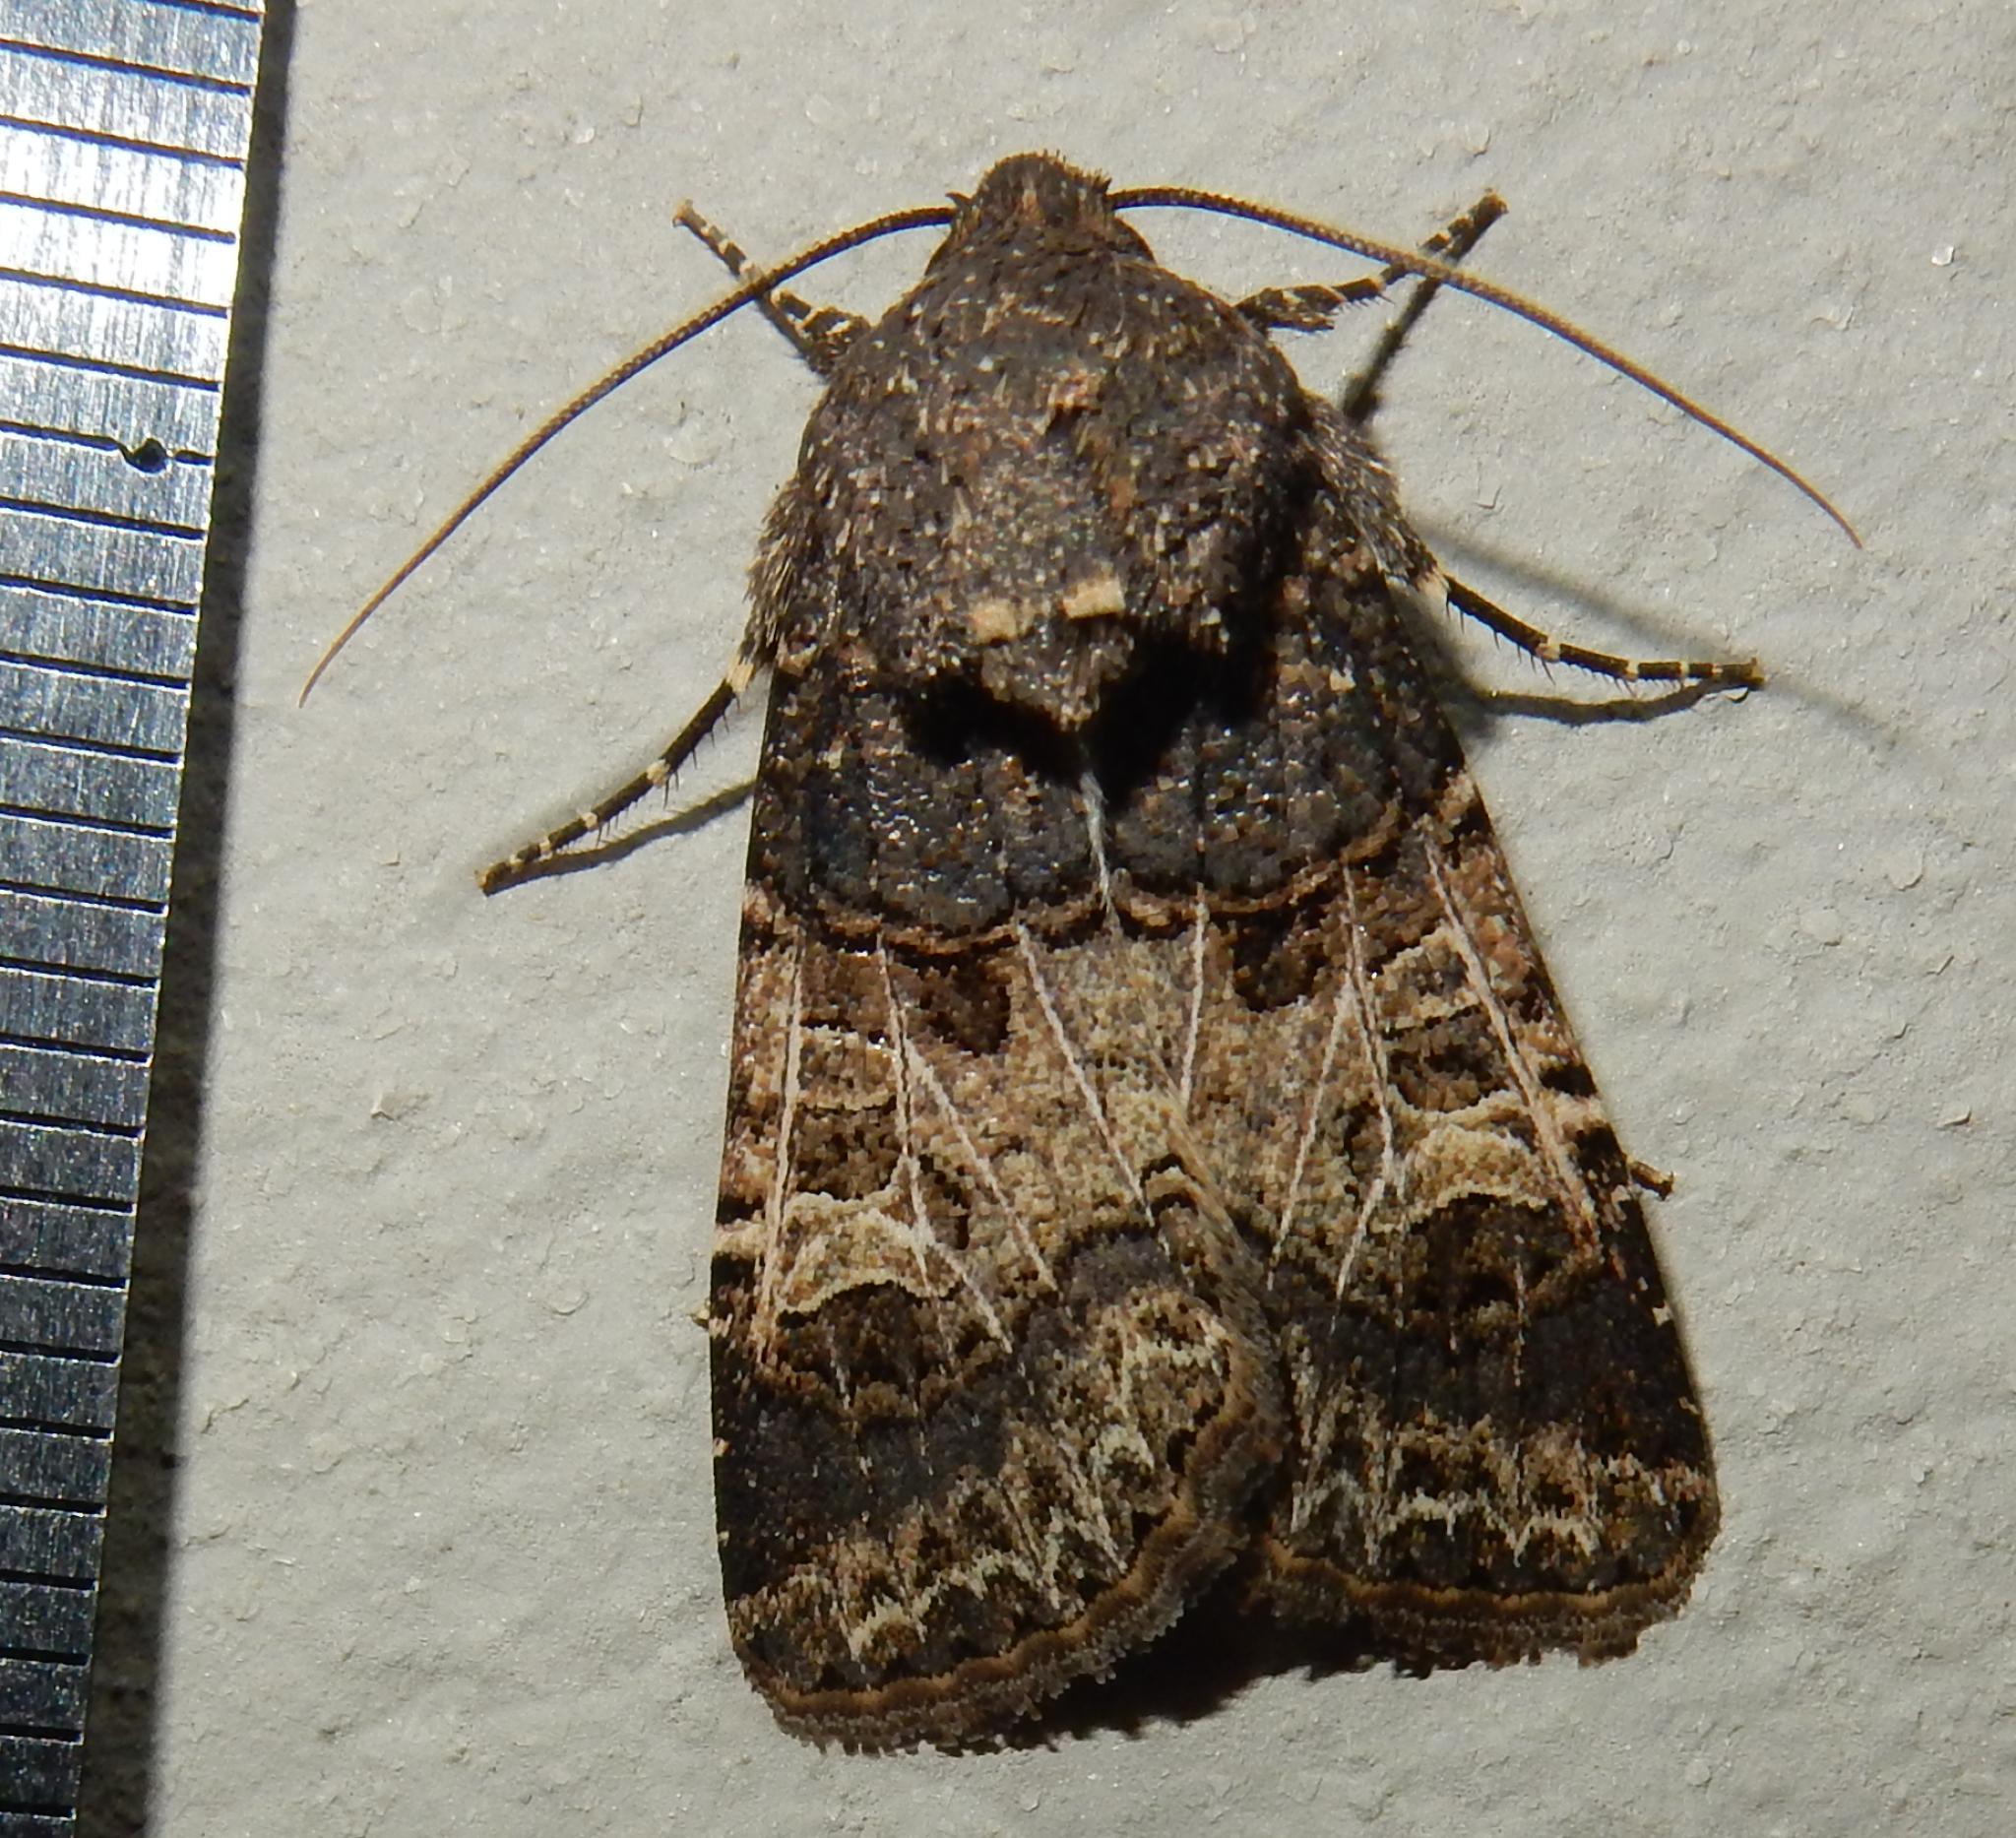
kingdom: Animalia
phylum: Arthropoda
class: Insecta
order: Lepidoptera
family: Noctuidae
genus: Hadena
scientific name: Hadena bulgeri
